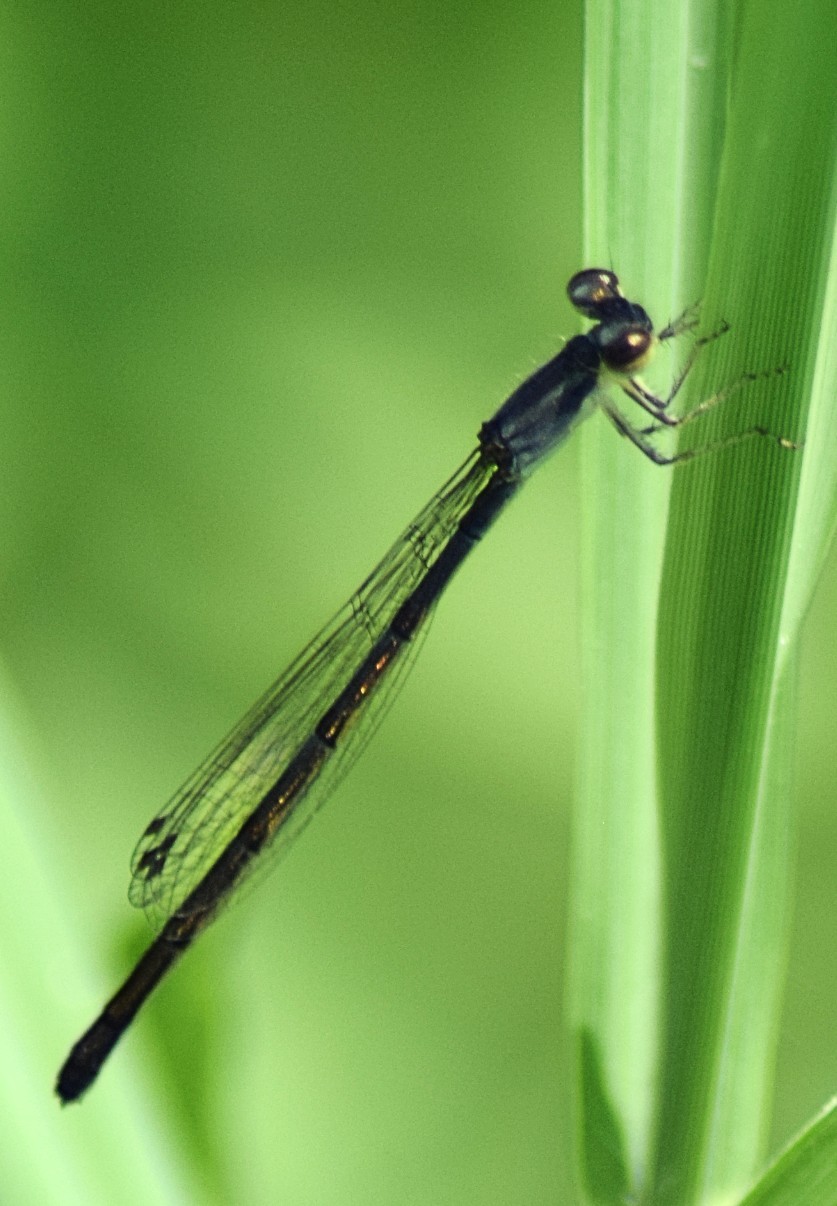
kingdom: Animalia
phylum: Arthropoda
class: Insecta
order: Odonata
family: Coenagrionidae
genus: Ischnura
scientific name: Ischnura posita
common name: Fragile forktail
